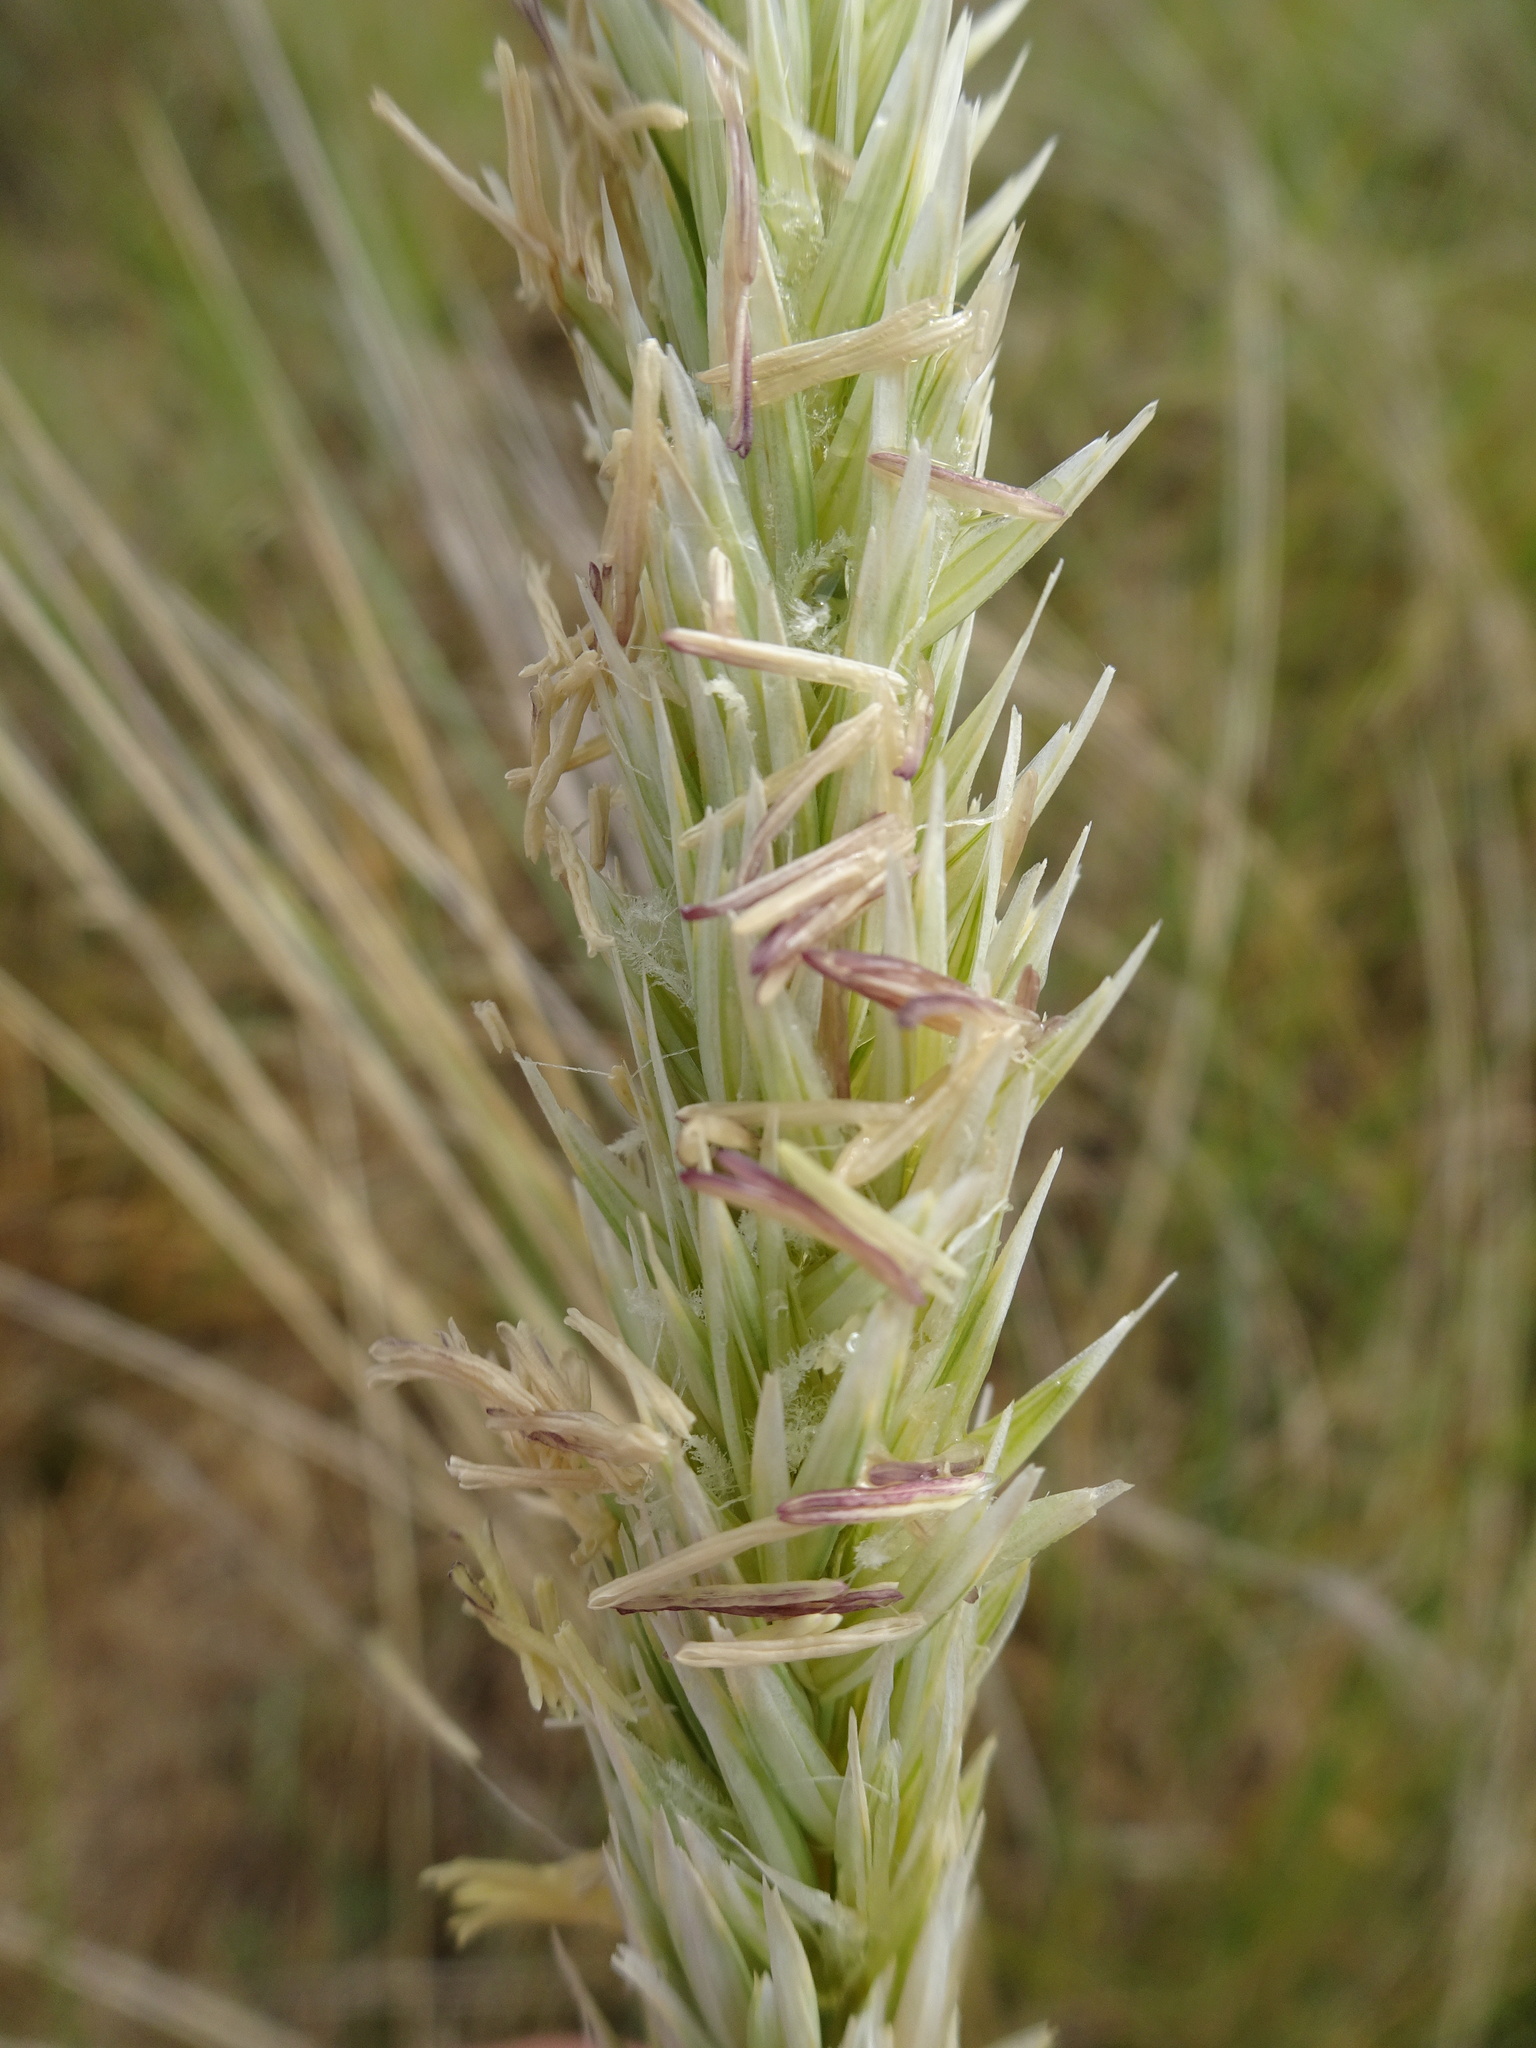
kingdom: Plantae
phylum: Tracheophyta
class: Liliopsida
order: Poales
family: Poaceae
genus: Calamagrostis
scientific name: Calamagrostis arenaria
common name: European beachgrass
